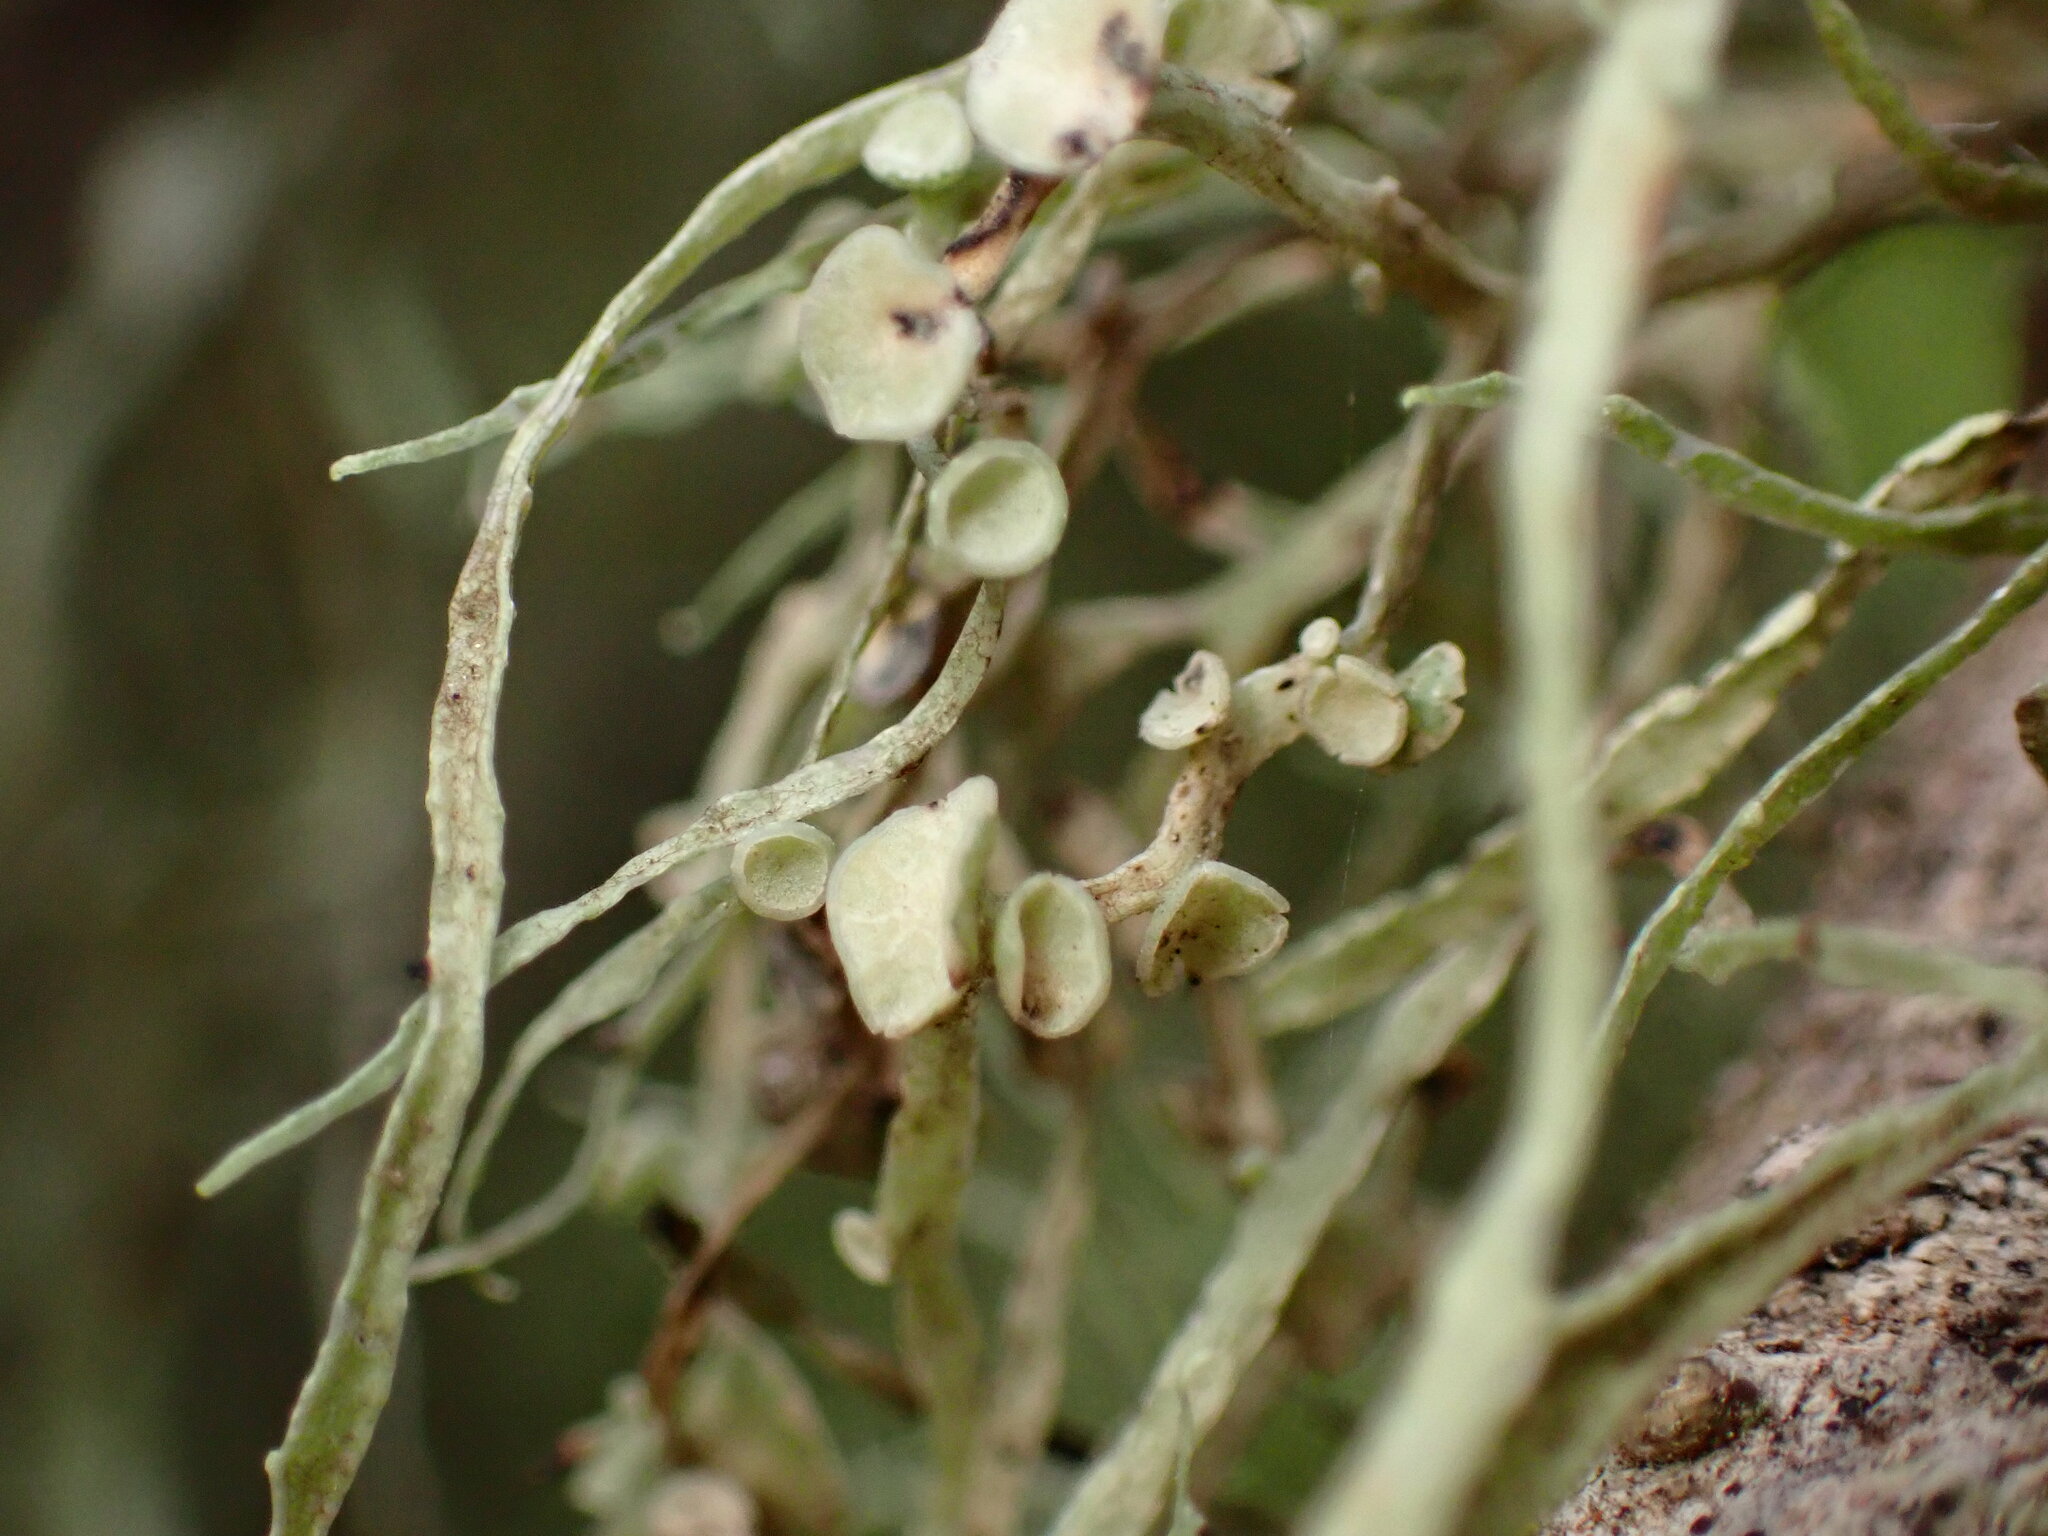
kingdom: Fungi
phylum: Ascomycota
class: Lecanoromycetes
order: Lecanorales
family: Ramalinaceae
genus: Ramalina
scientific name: Ramalina leptocarpha
